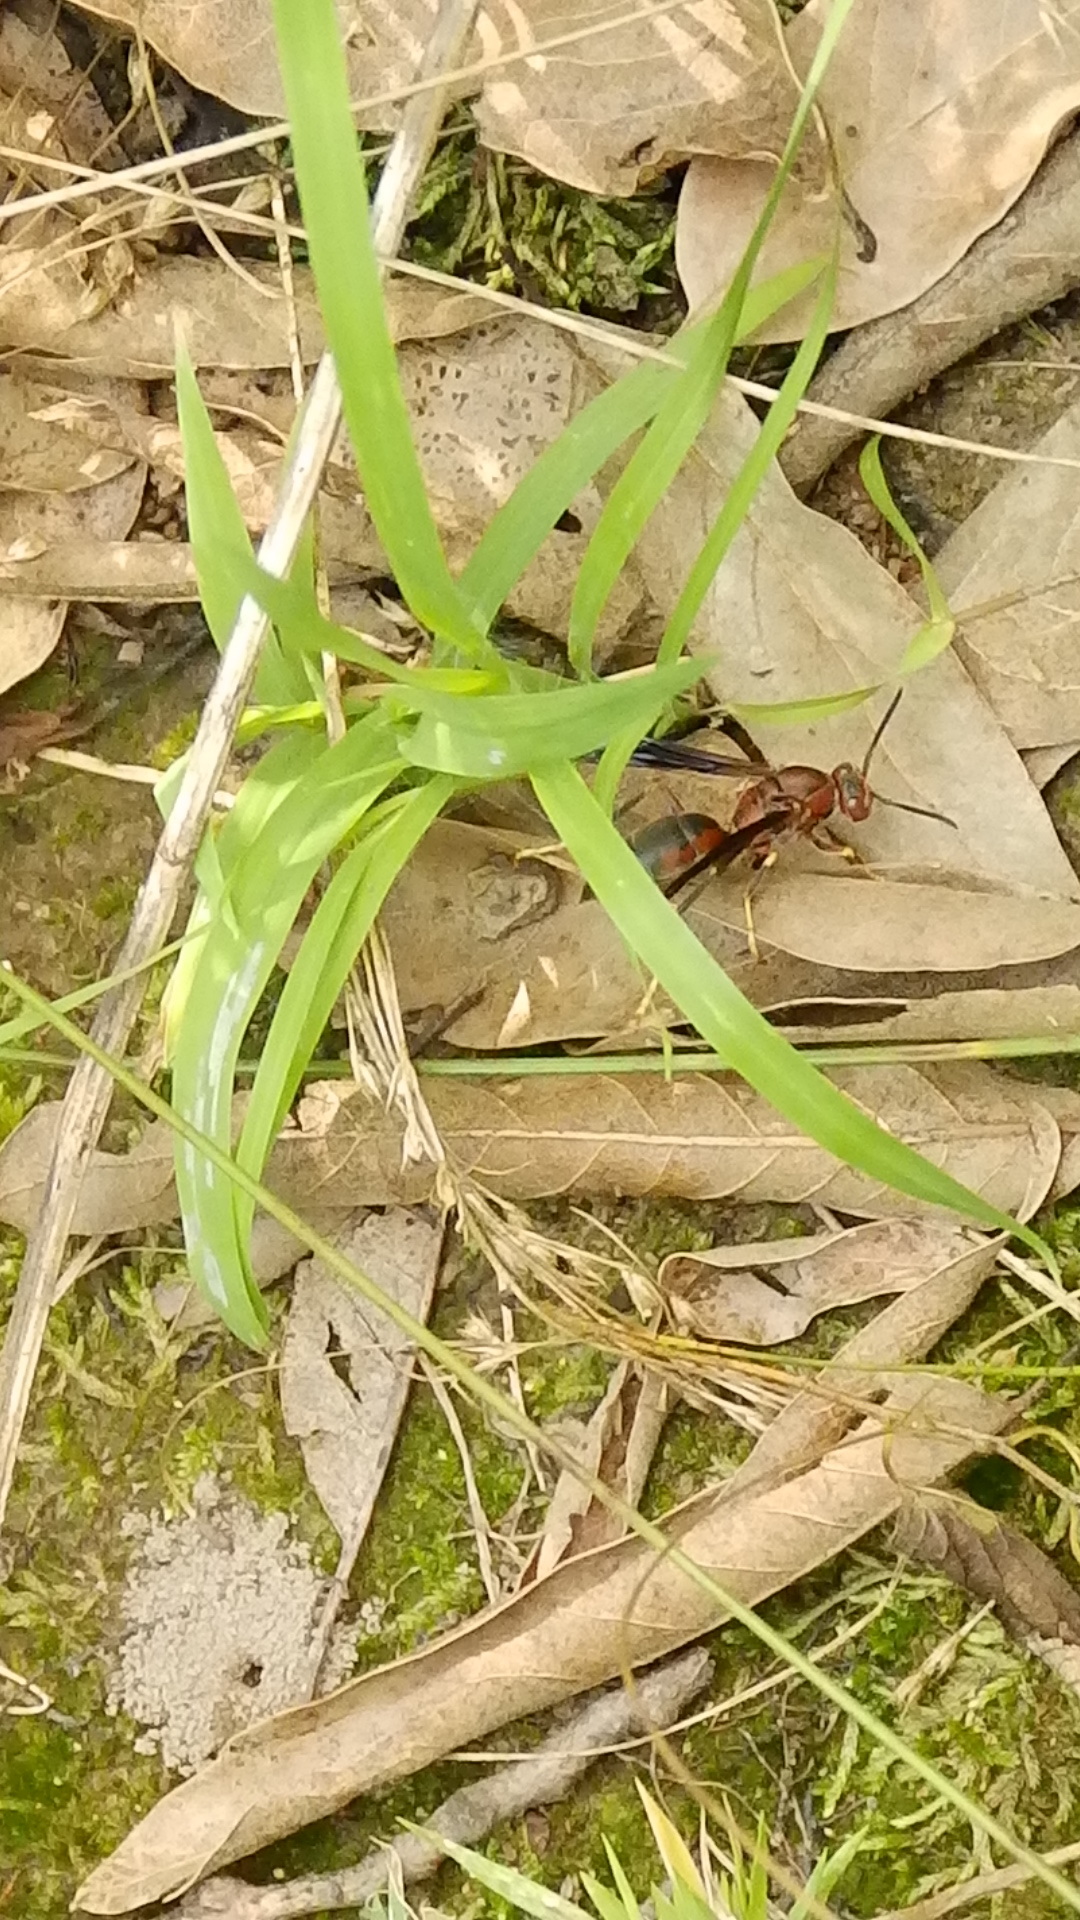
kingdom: Animalia
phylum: Arthropoda
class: Insecta
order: Hymenoptera
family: Eumenidae
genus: Polistes
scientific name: Polistes metricus
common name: Metric paper wasp
